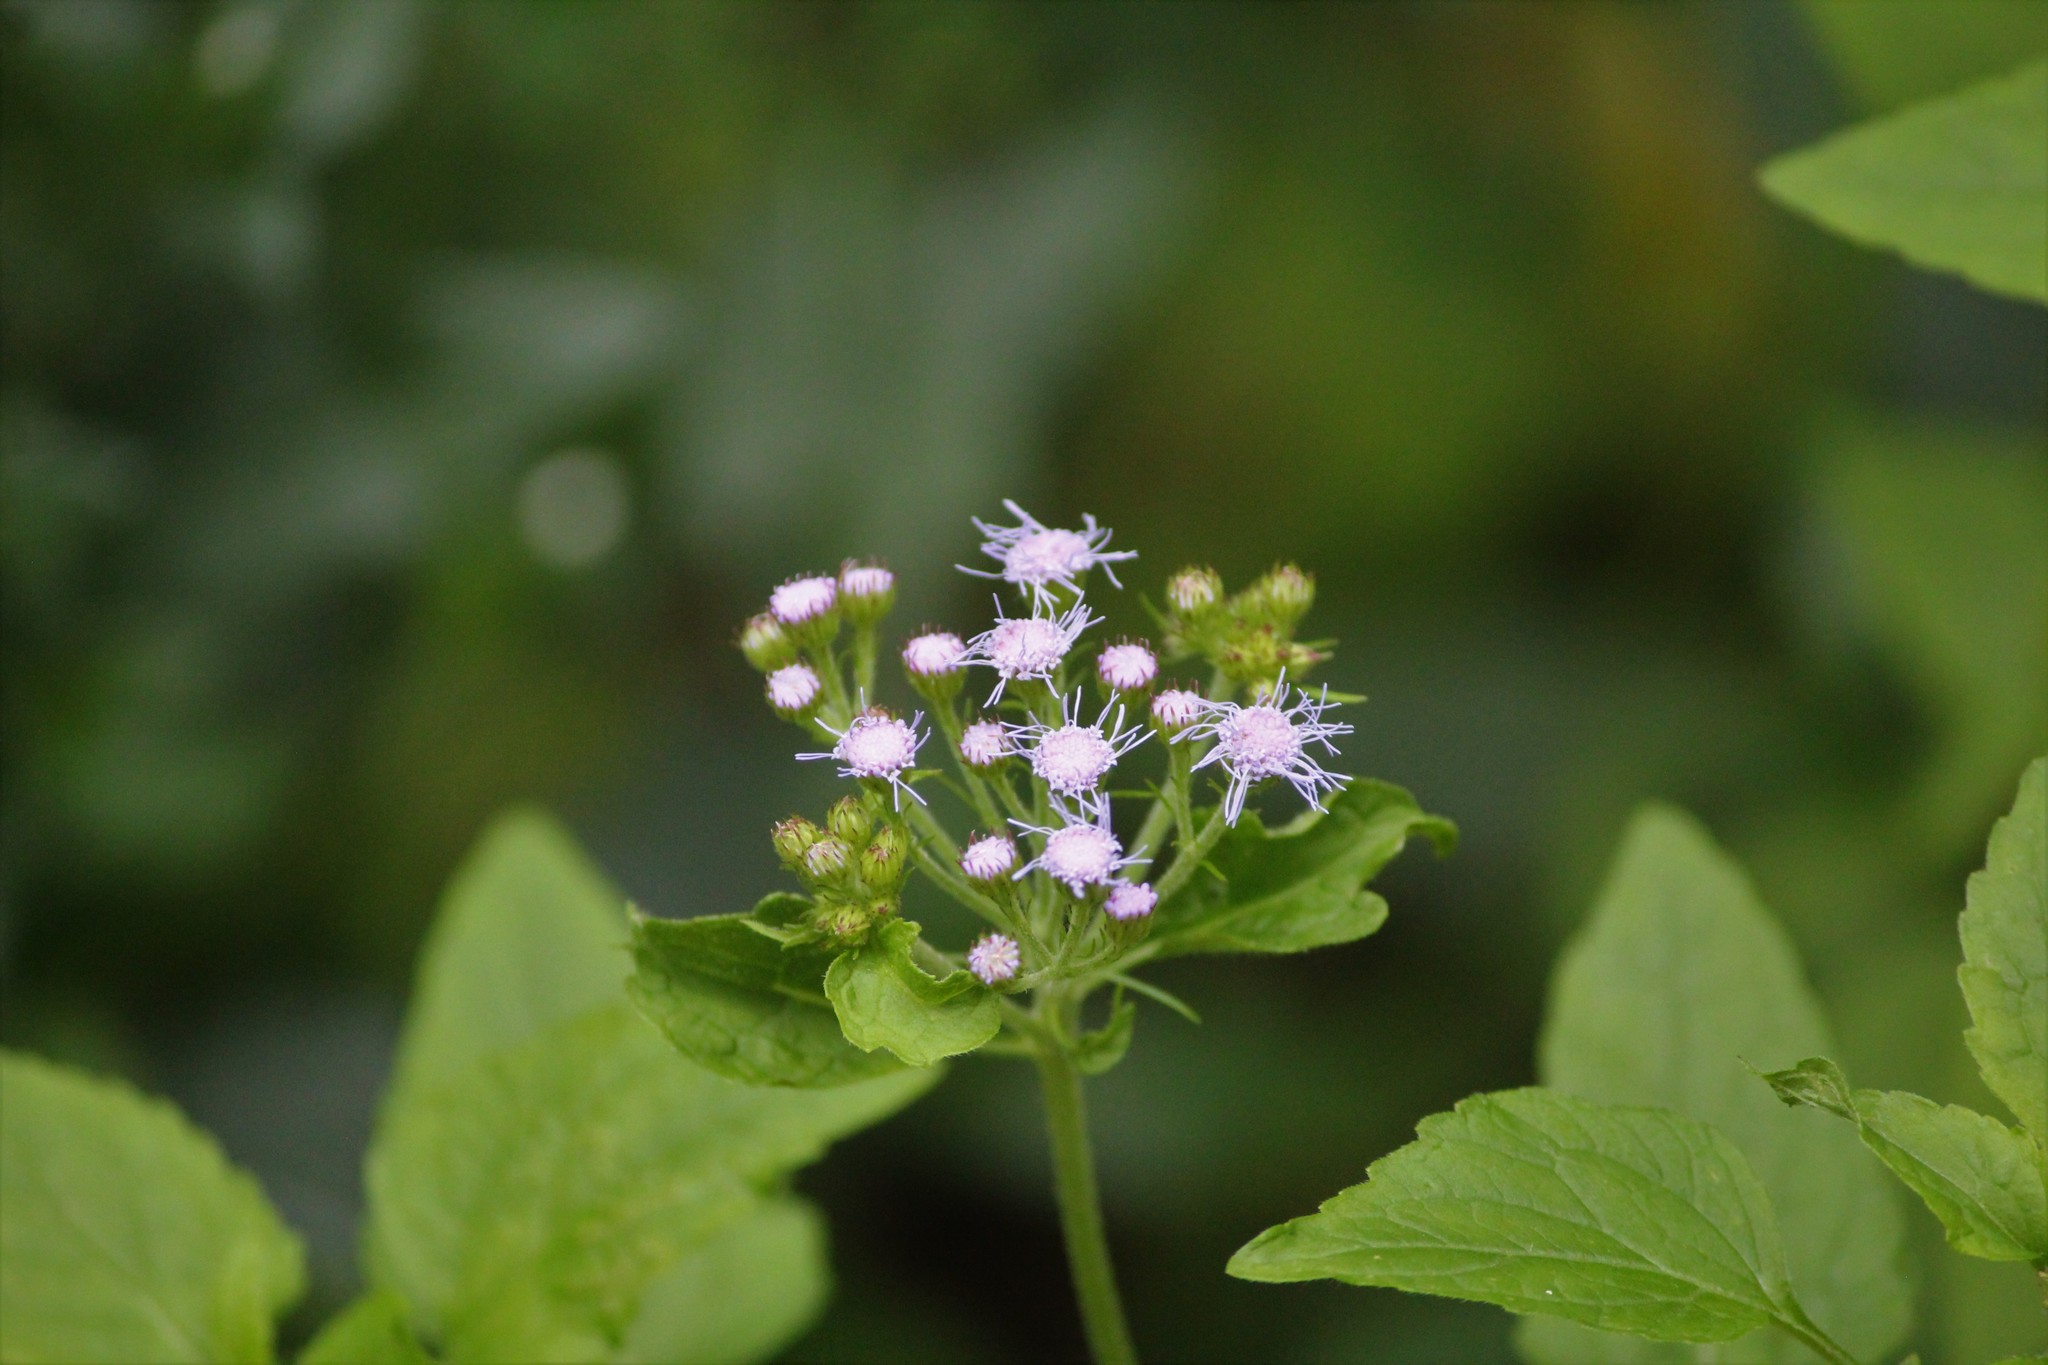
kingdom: Plantae
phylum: Tracheophyta
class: Magnoliopsida
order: Asterales
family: Asteraceae
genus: Conoclinium
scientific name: Conoclinium coelestinum
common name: Blue mistflower
